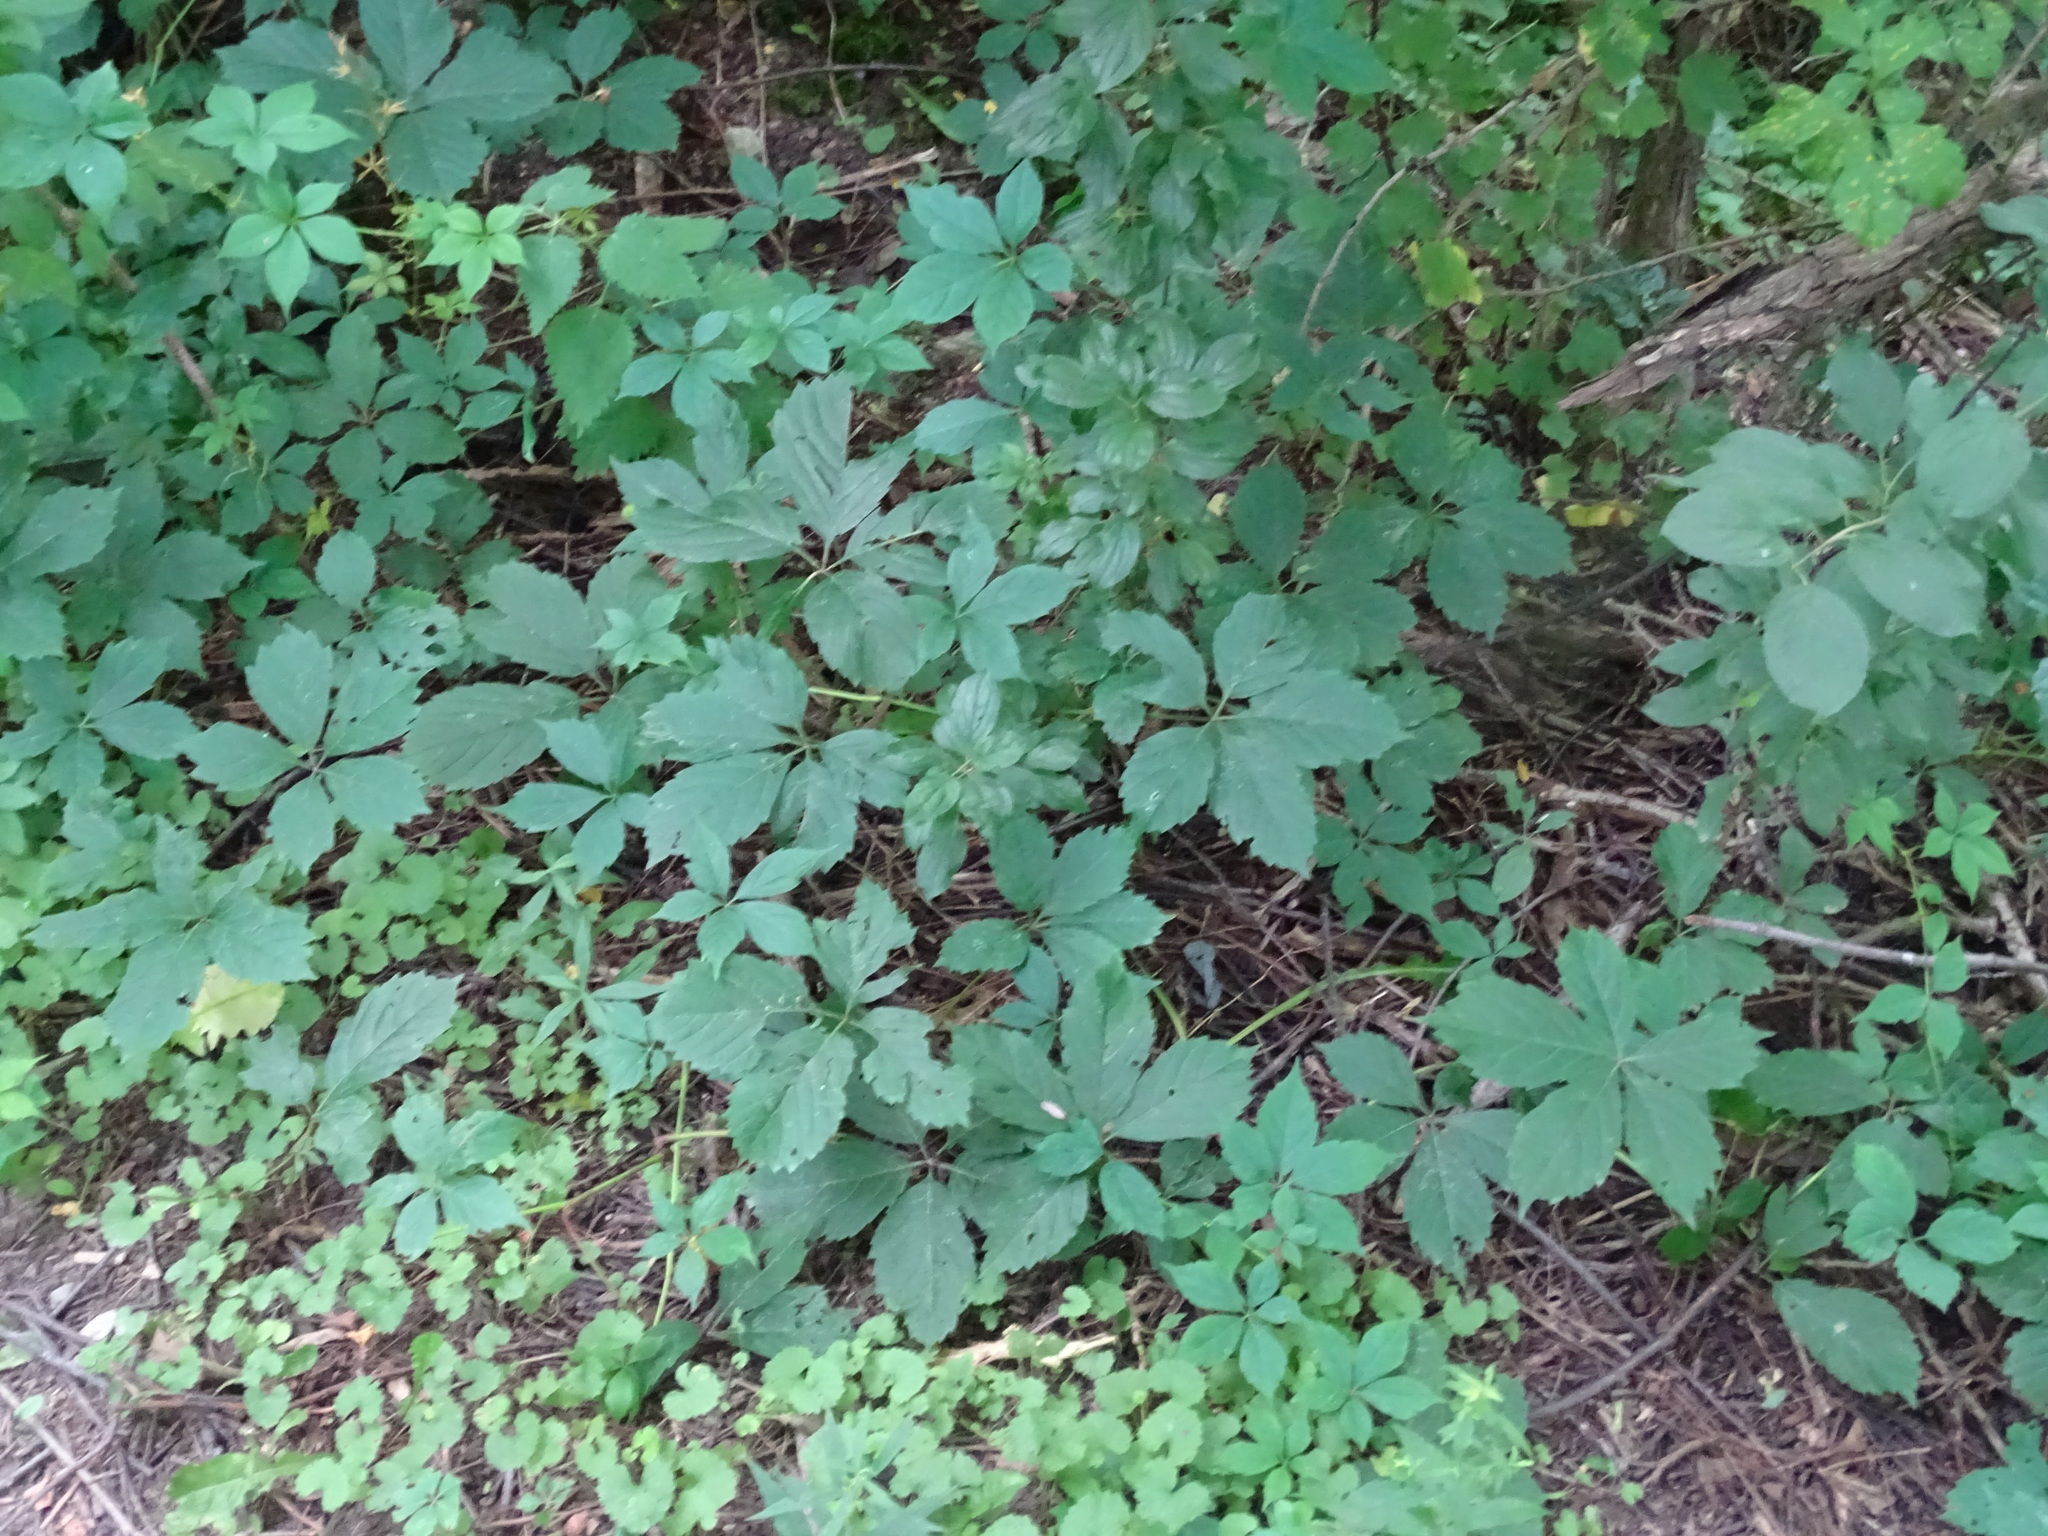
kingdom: Plantae
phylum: Tracheophyta
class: Magnoliopsida
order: Vitales
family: Vitaceae
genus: Parthenocissus
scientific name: Parthenocissus inserta
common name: False virginia-creeper
